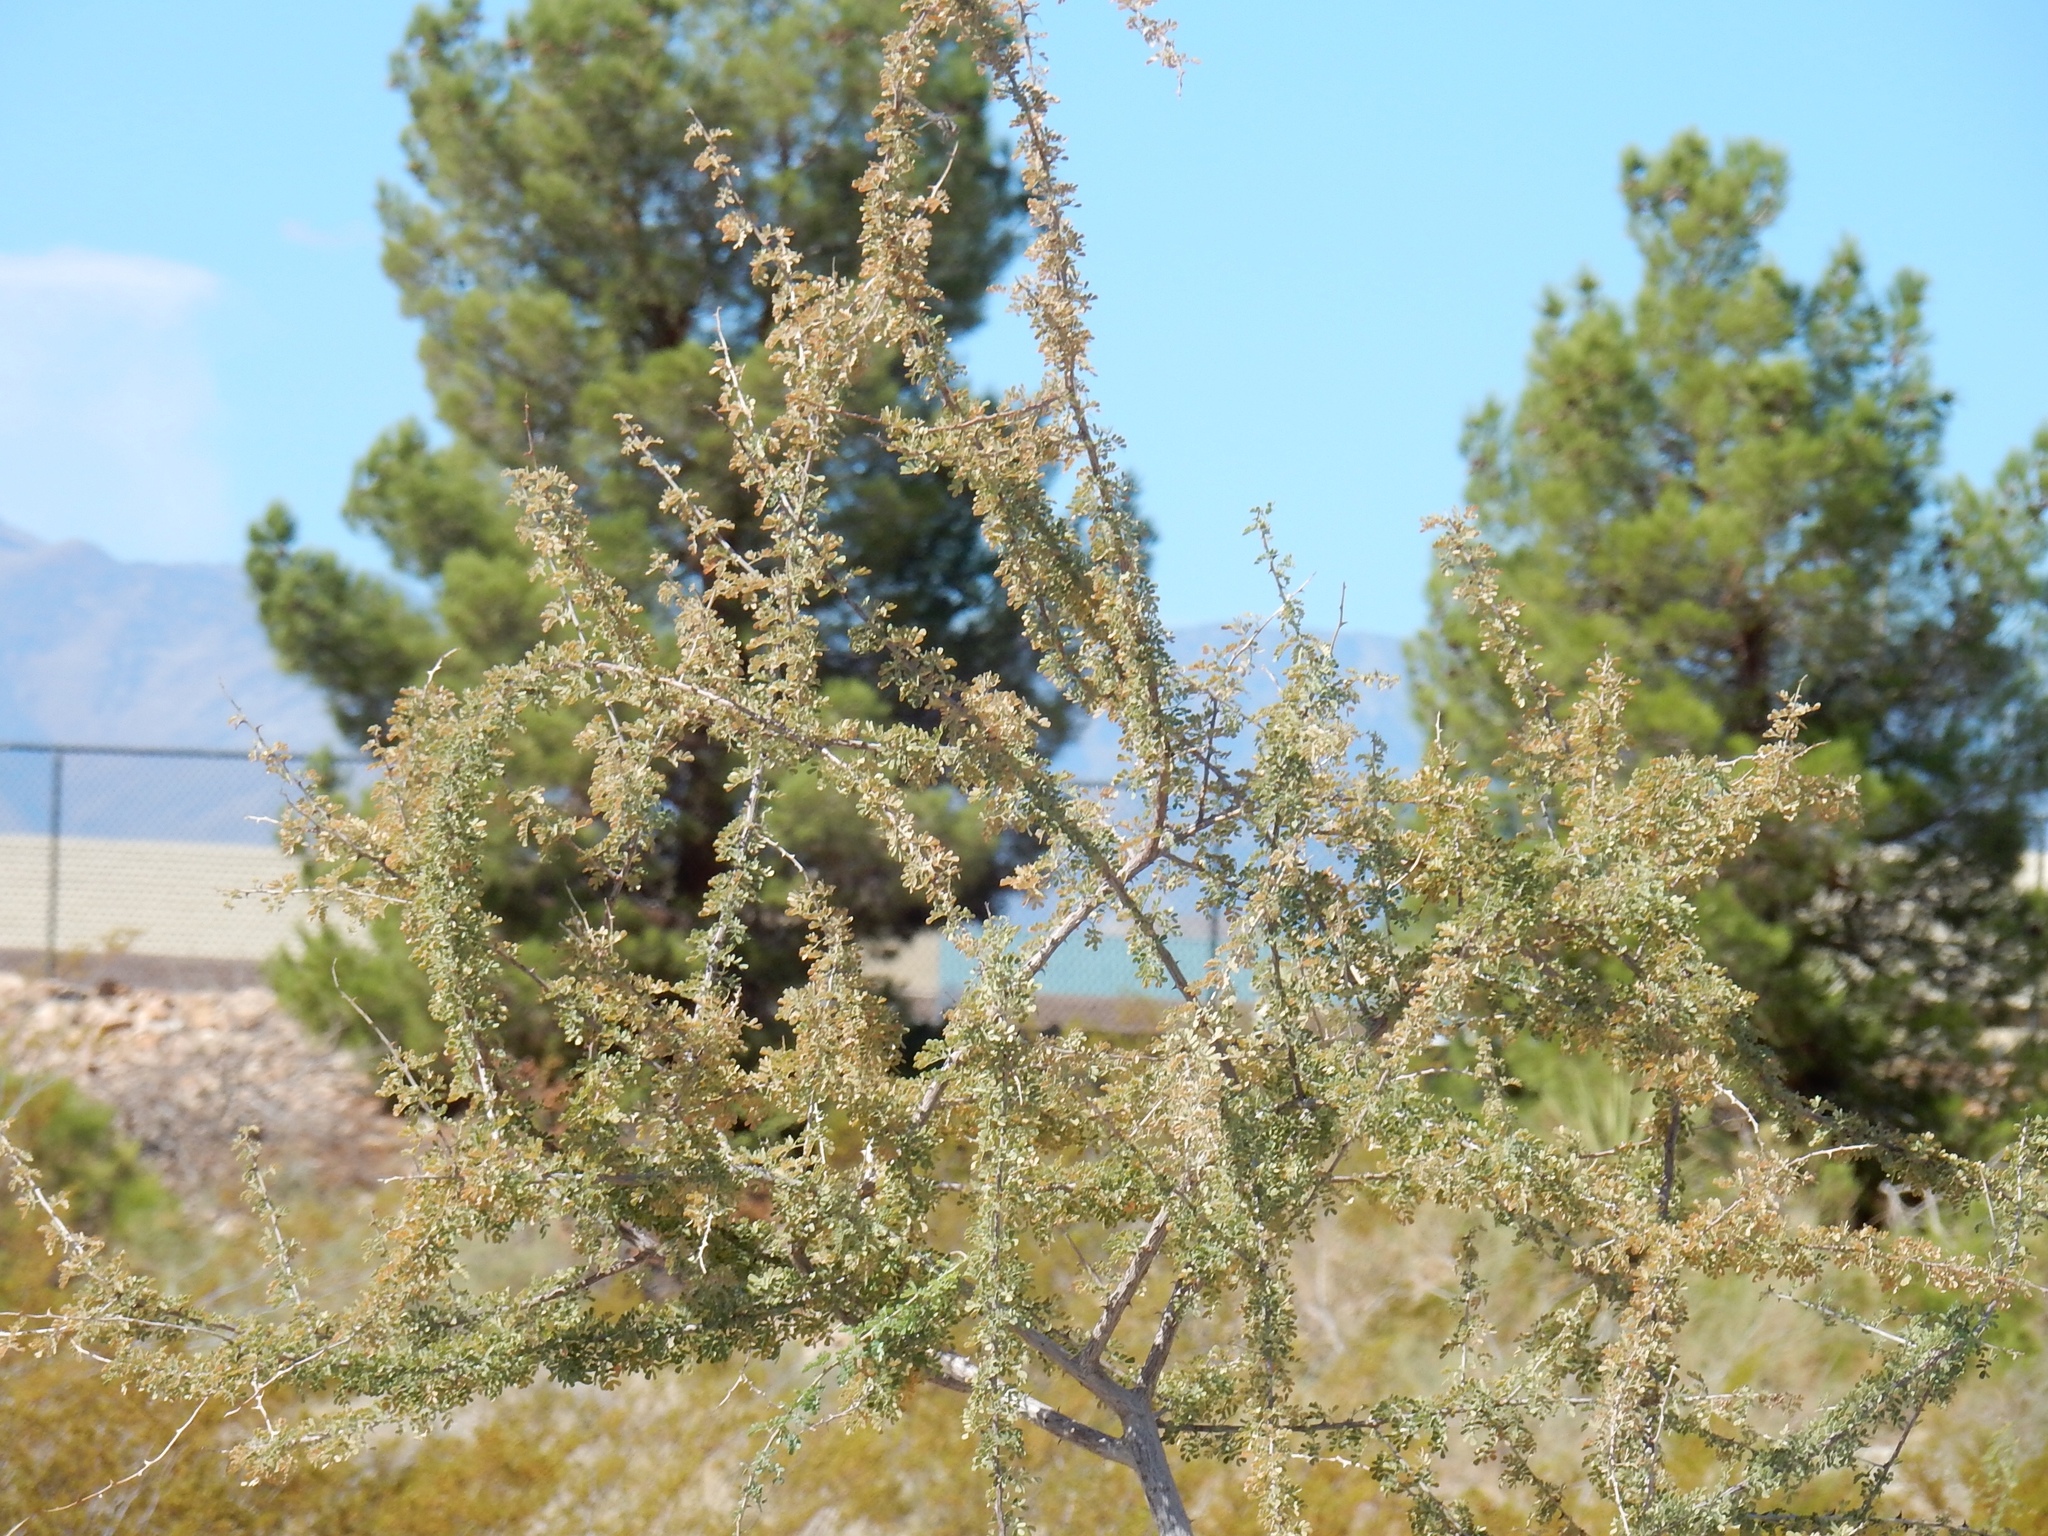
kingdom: Plantae
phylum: Tracheophyta
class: Magnoliopsida
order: Fabales
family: Fabaceae
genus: Senegalia
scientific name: Senegalia greggii
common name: Texas-mimosa
